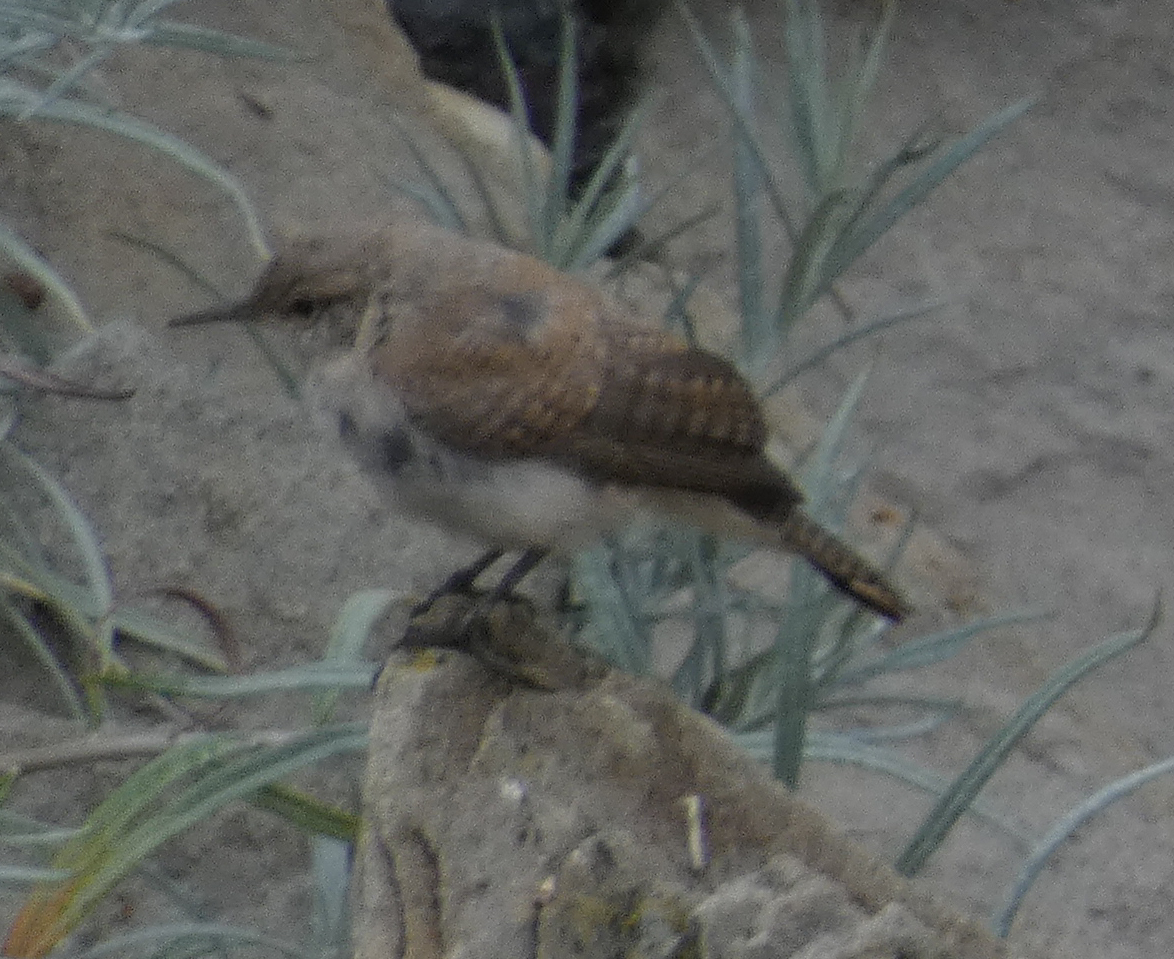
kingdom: Animalia
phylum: Chordata
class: Aves
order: Passeriformes
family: Troglodytidae
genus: Salpinctes
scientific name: Salpinctes obsoletus
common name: Rock wren
